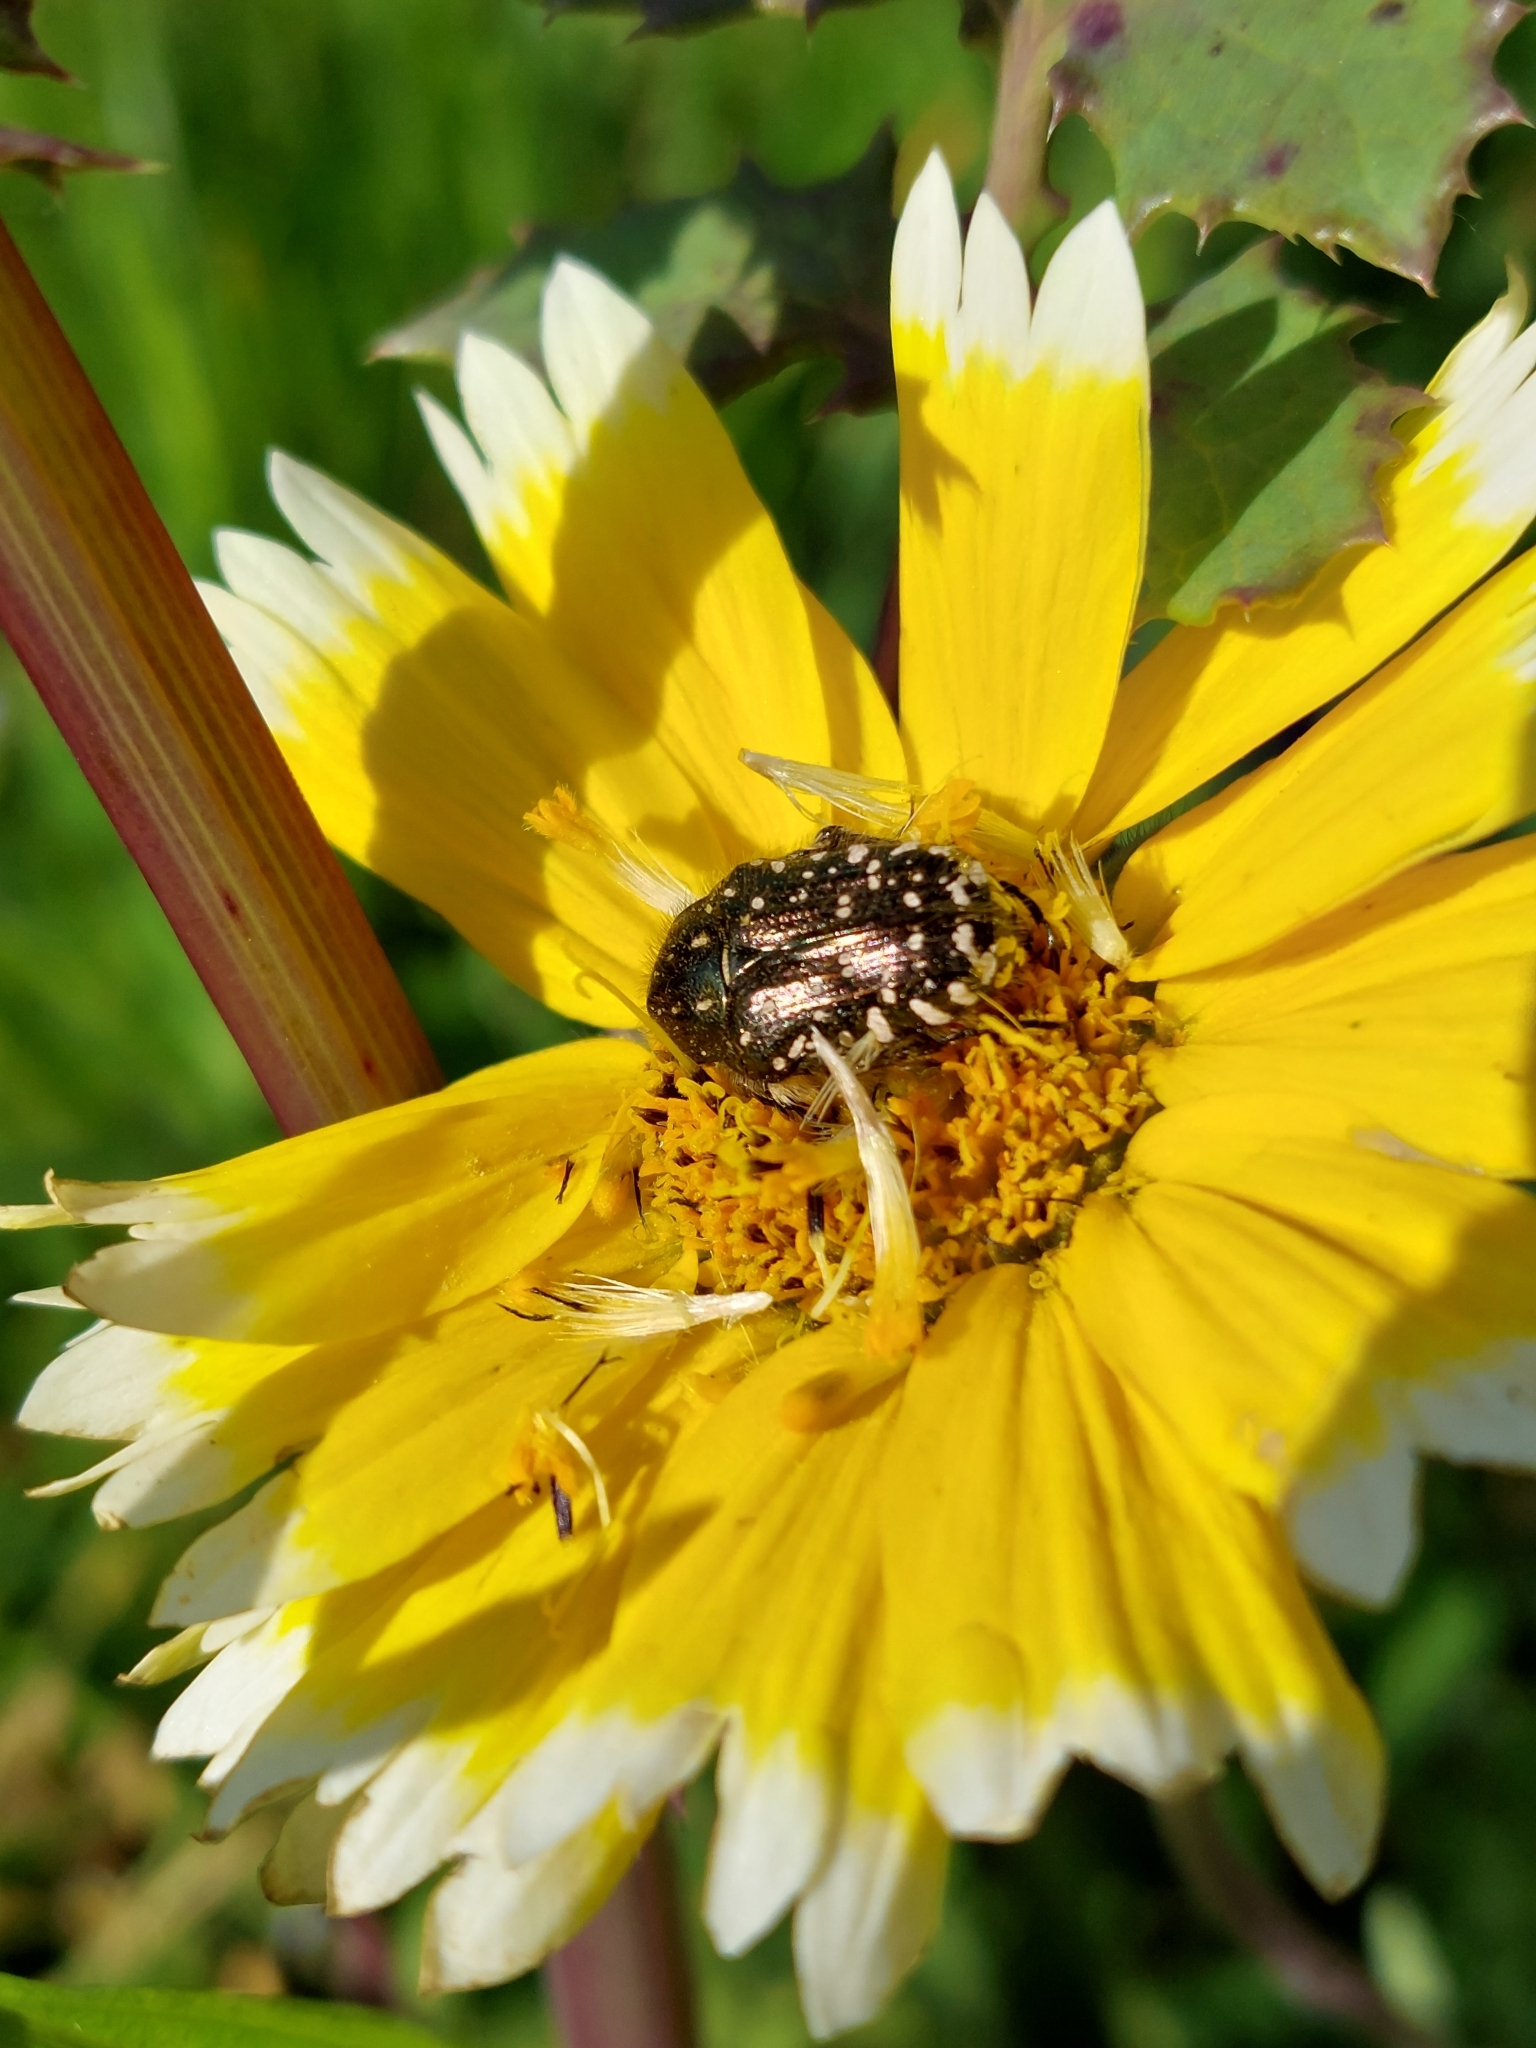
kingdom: Animalia
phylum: Arthropoda
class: Insecta
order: Coleoptera
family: Scarabaeidae
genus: Oxythyrea
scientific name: Oxythyrea funesta
